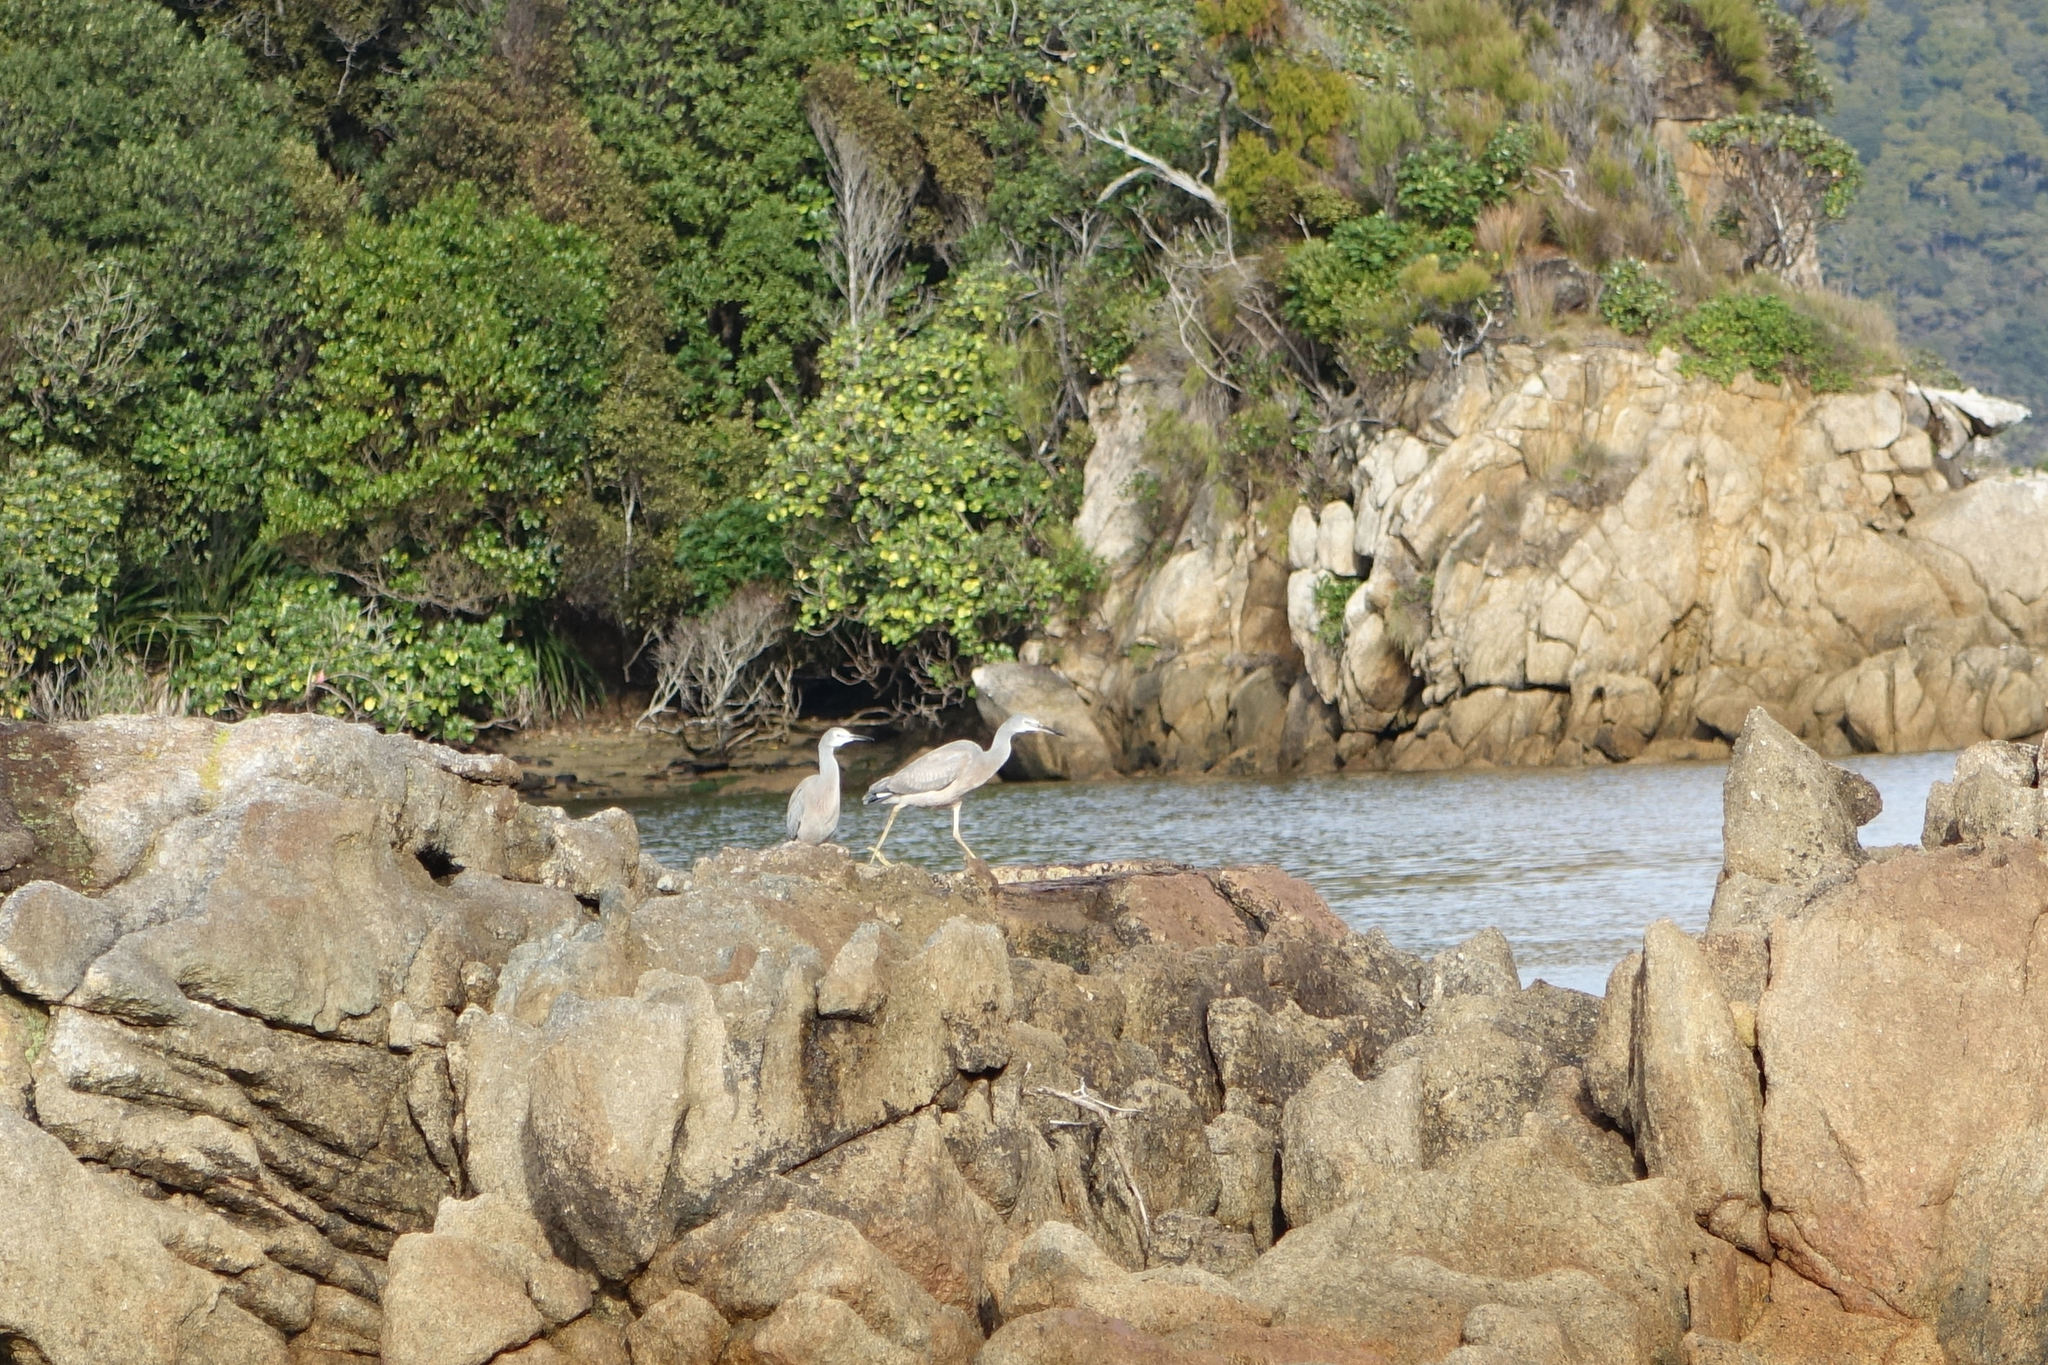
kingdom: Animalia
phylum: Chordata
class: Aves
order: Pelecaniformes
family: Ardeidae
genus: Egretta
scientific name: Egretta novaehollandiae
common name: White-faced heron
